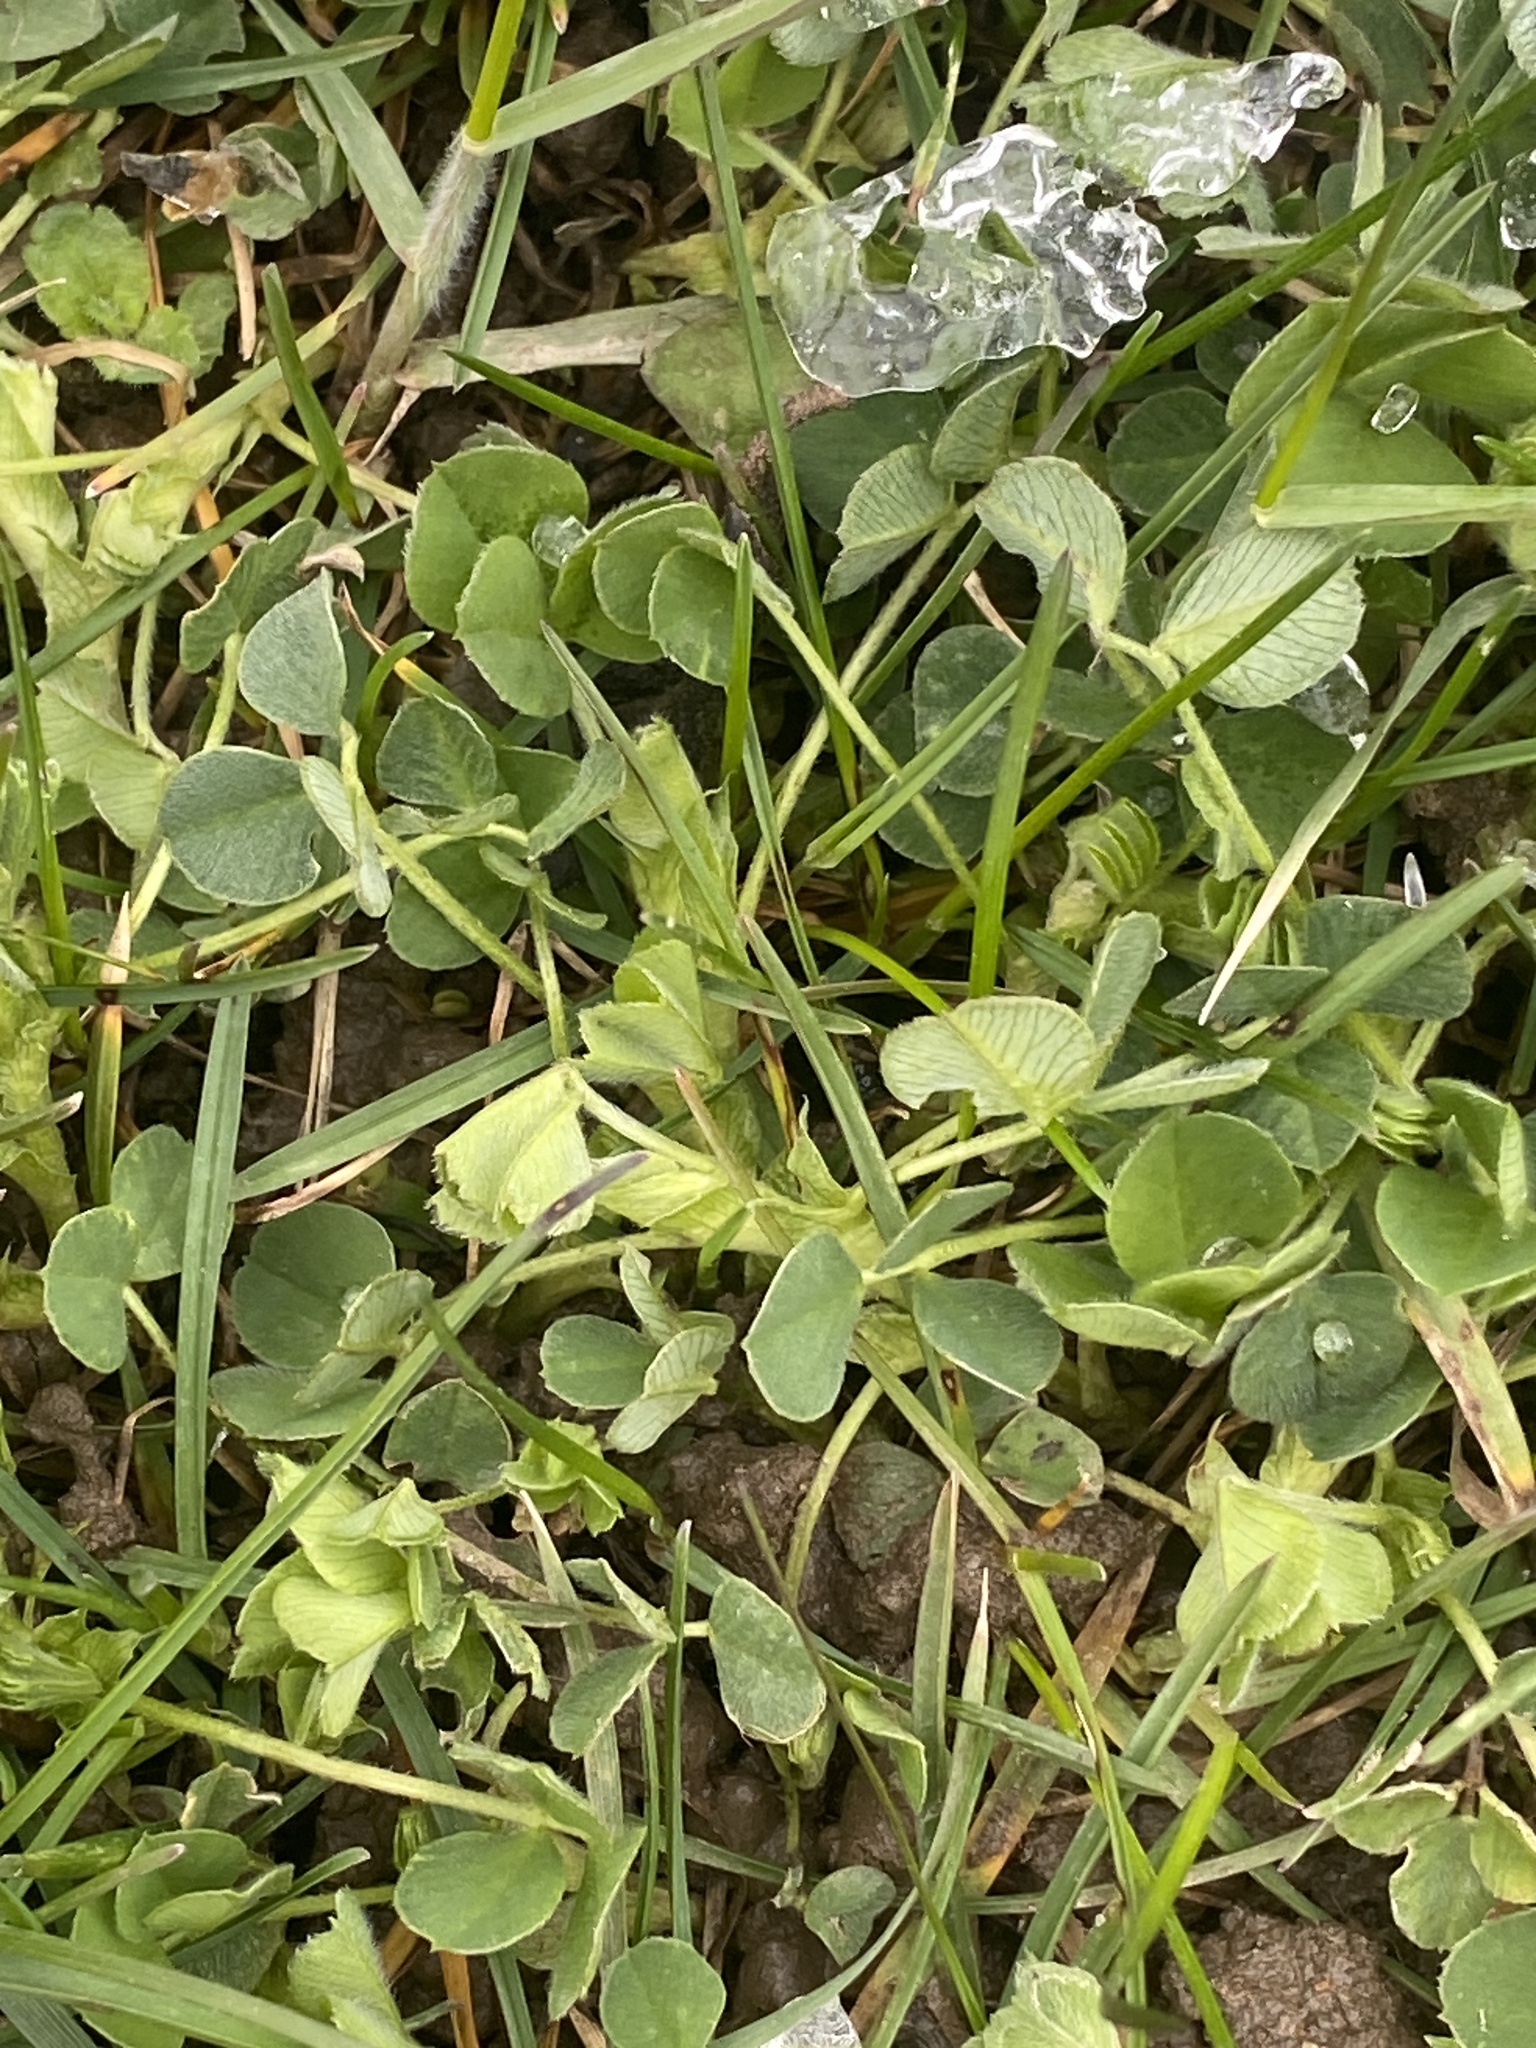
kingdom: Plantae
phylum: Tracheophyta
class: Magnoliopsida
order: Fabales
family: Fabaceae
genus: Medicago
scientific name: Medicago lupulina
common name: Black medick
